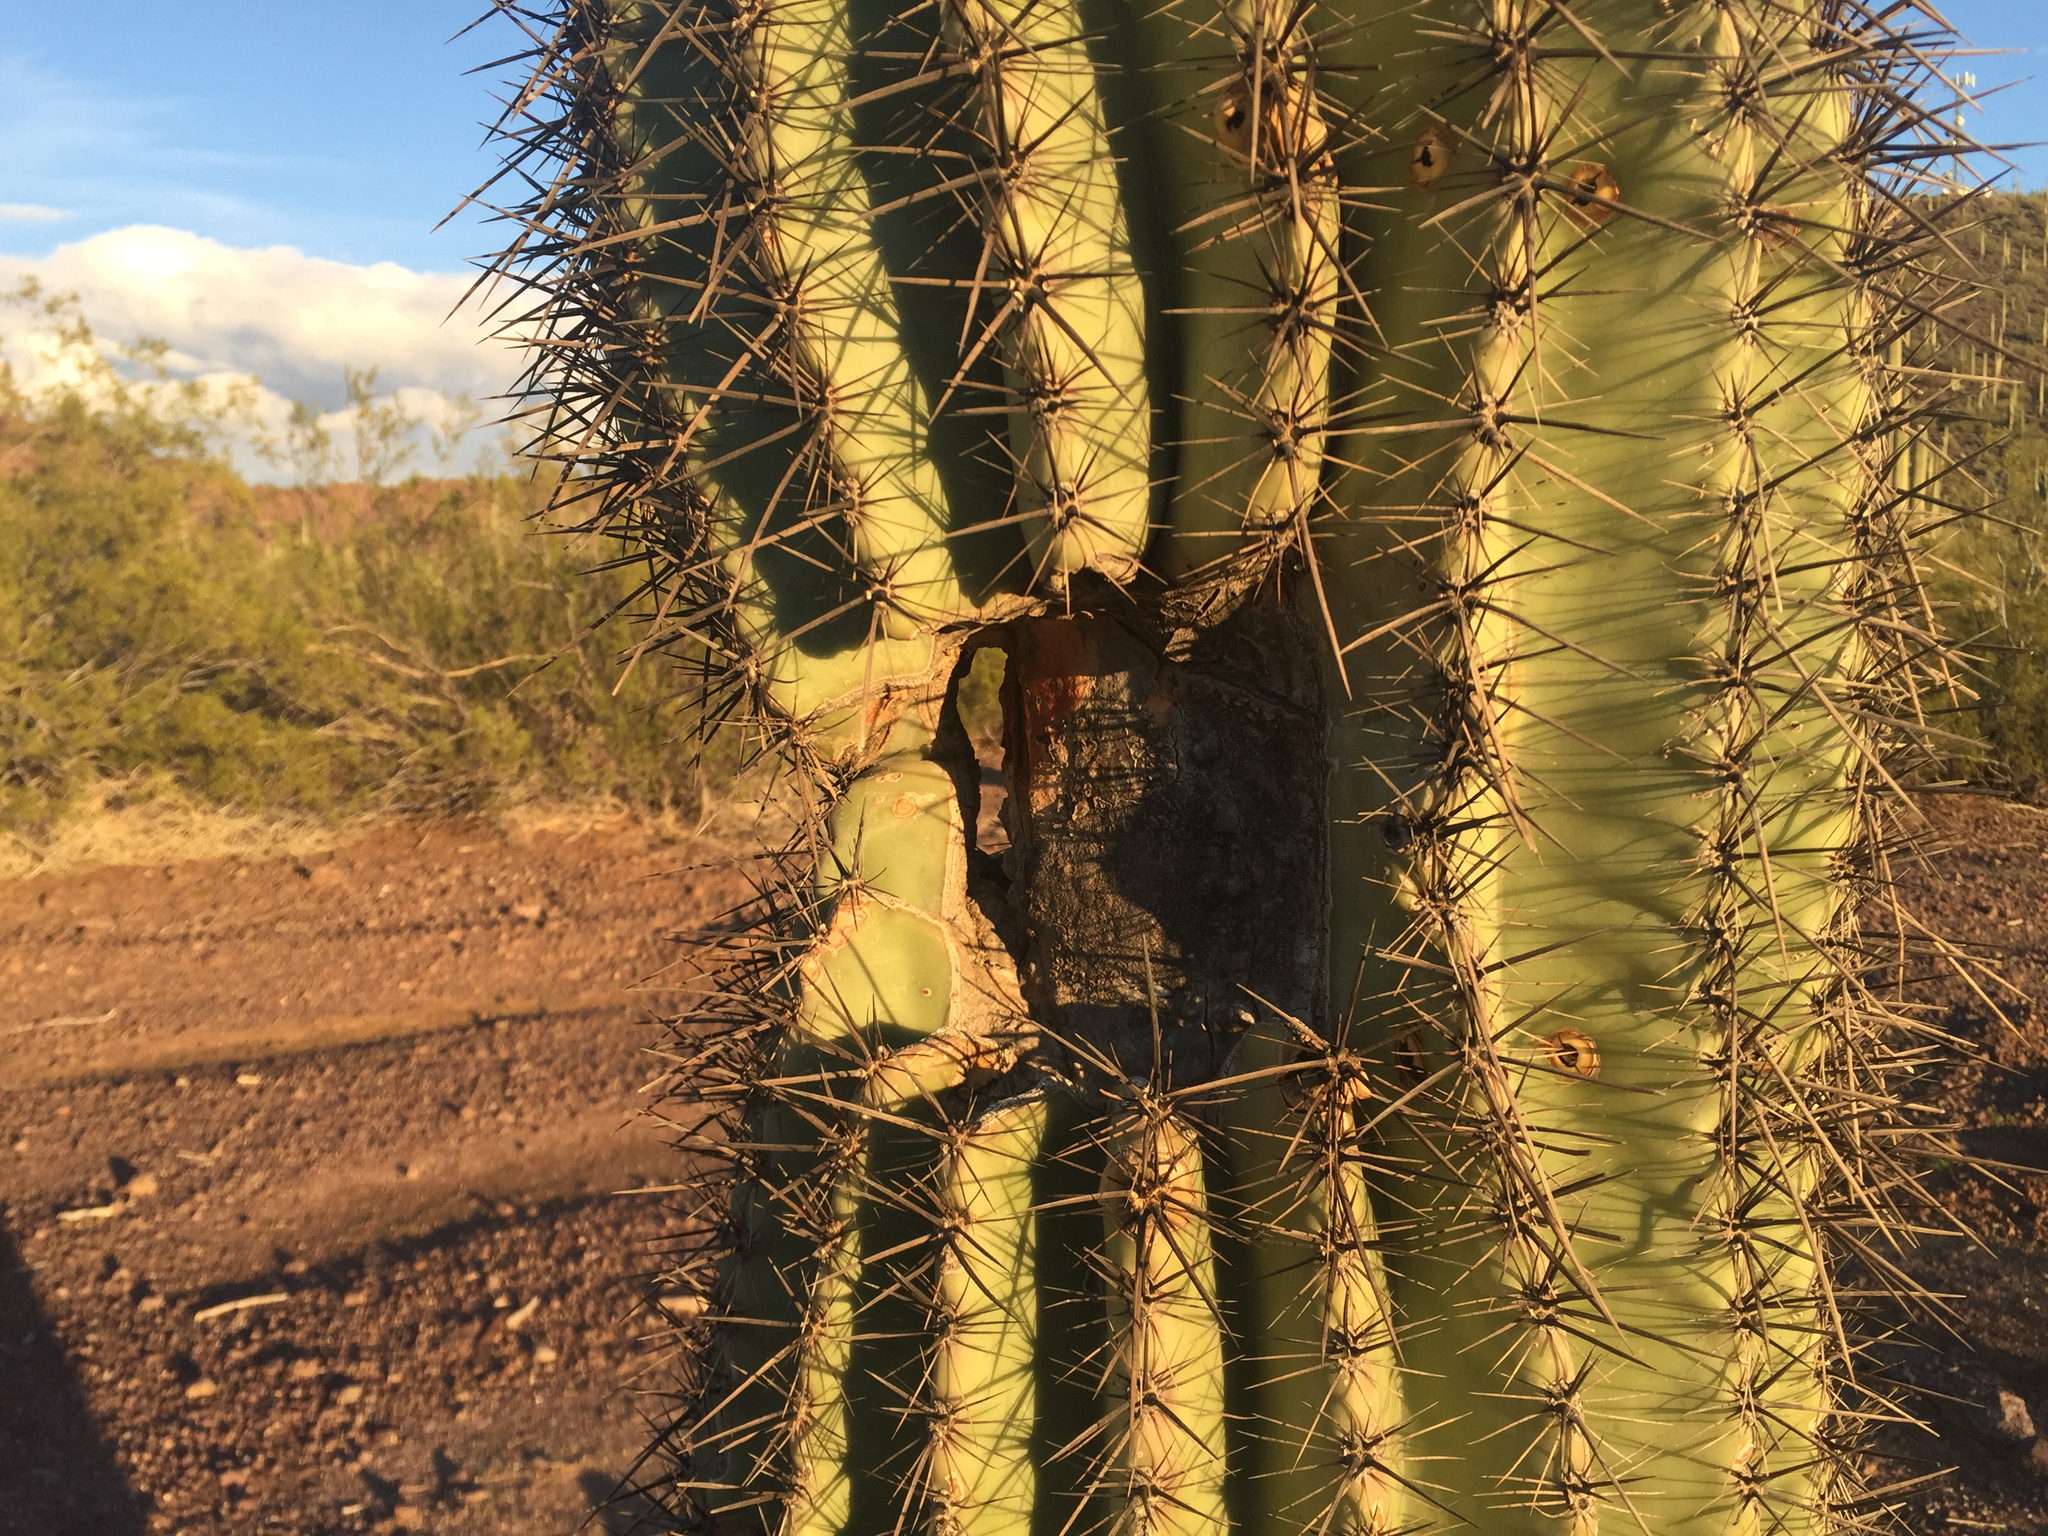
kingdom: Plantae
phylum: Tracheophyta
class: Magnoliopsida
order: Caryophyllales
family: Cactaceae
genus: Carnegiea
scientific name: Carnegiea gigantea
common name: Saguaro
